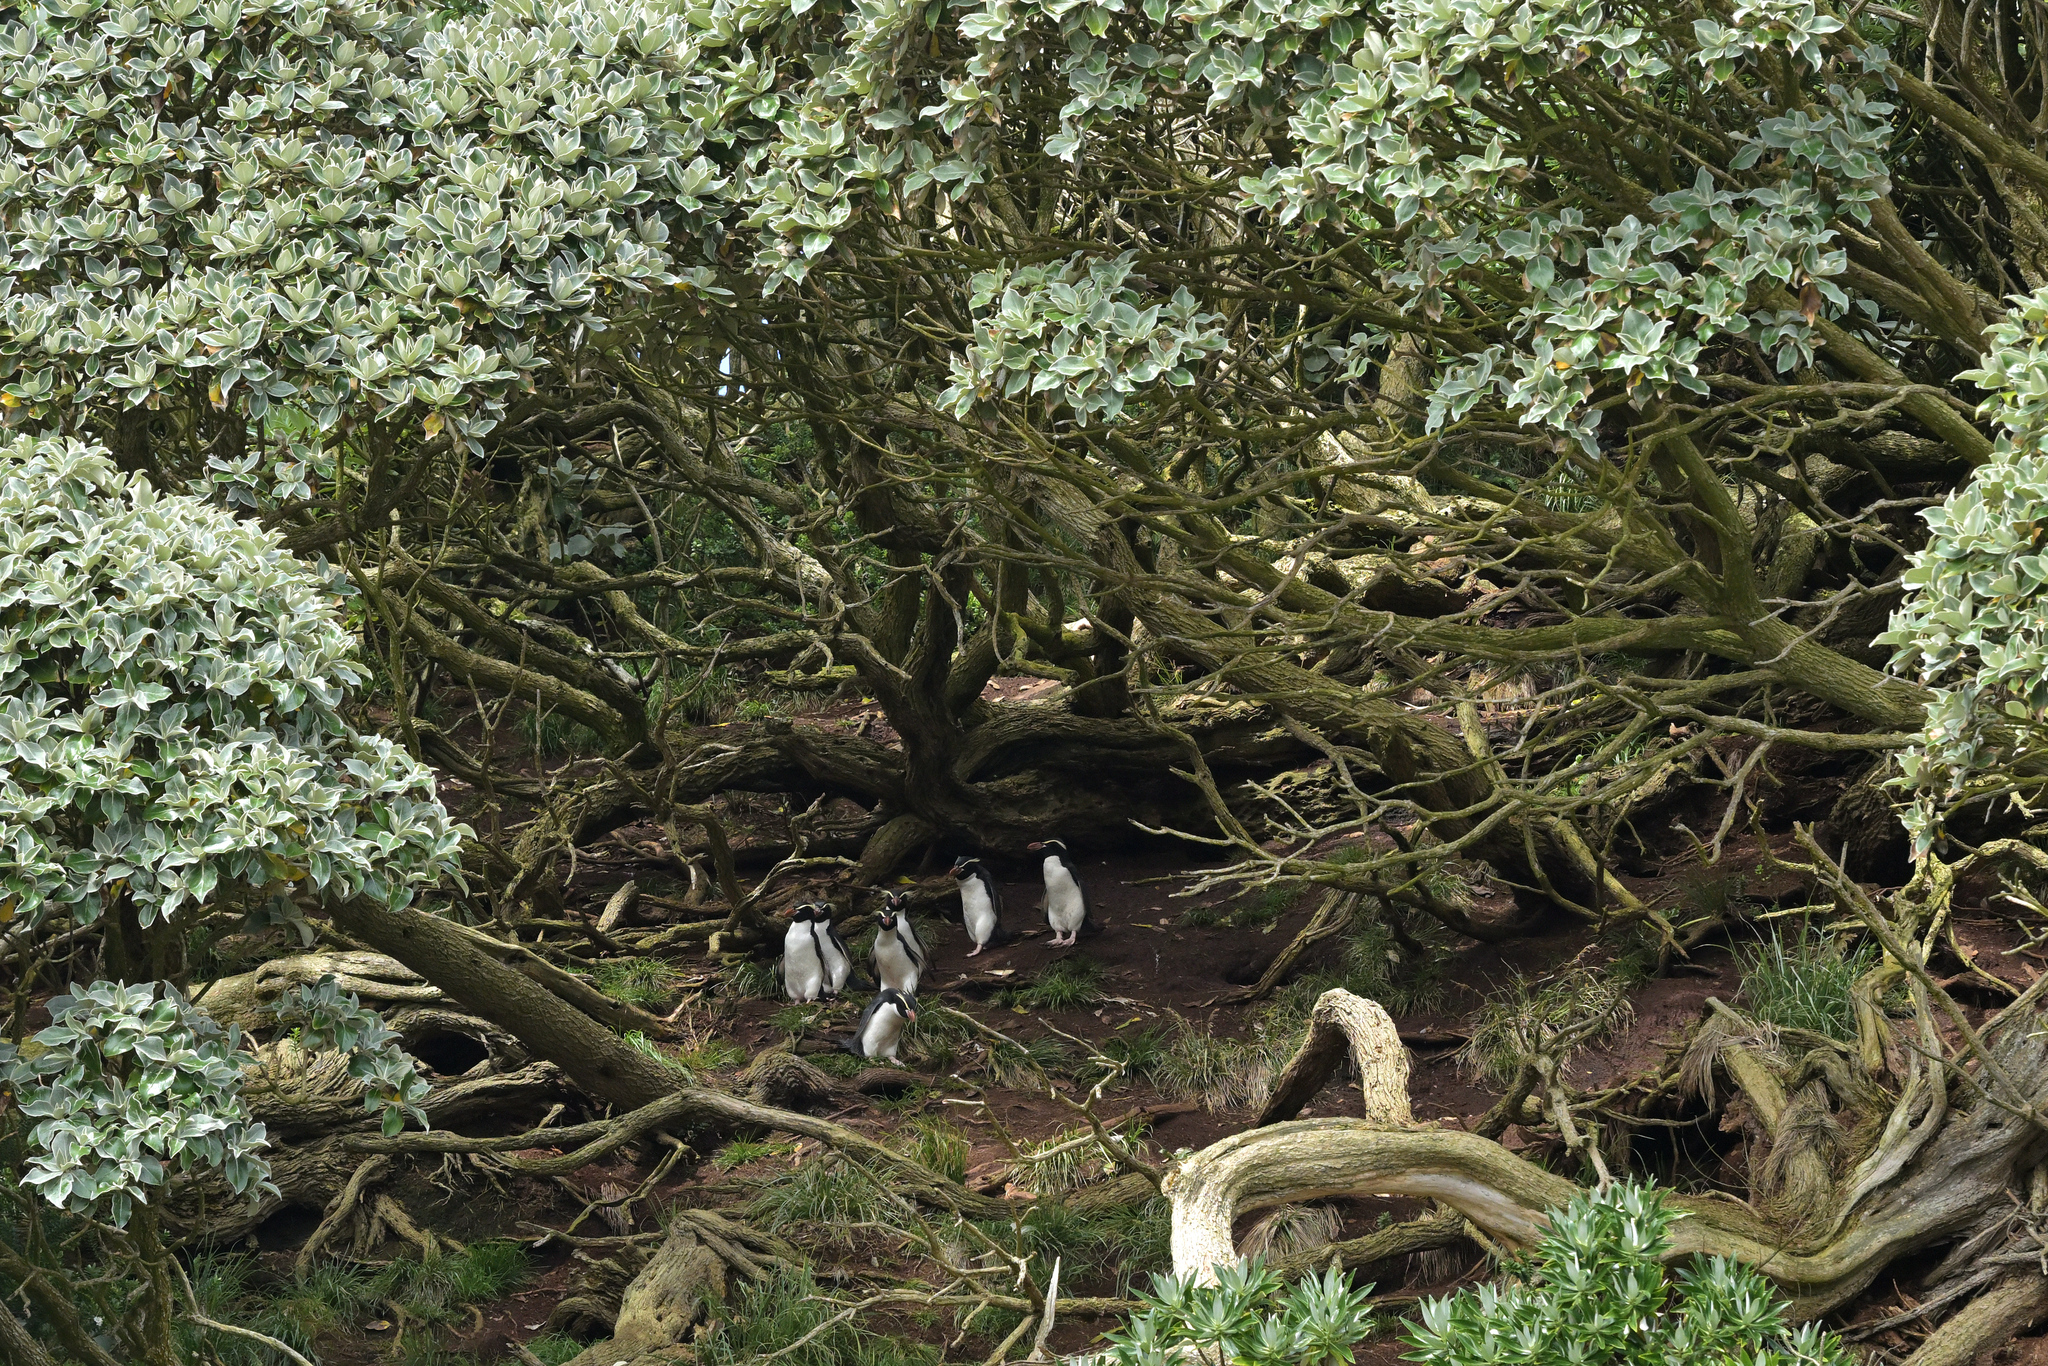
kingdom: Animalia
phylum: Chordata
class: Aves
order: Sphenisciformes
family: Spheniscidae
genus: Eudyptes
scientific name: Eudyptes robustus
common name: Snares penguin
